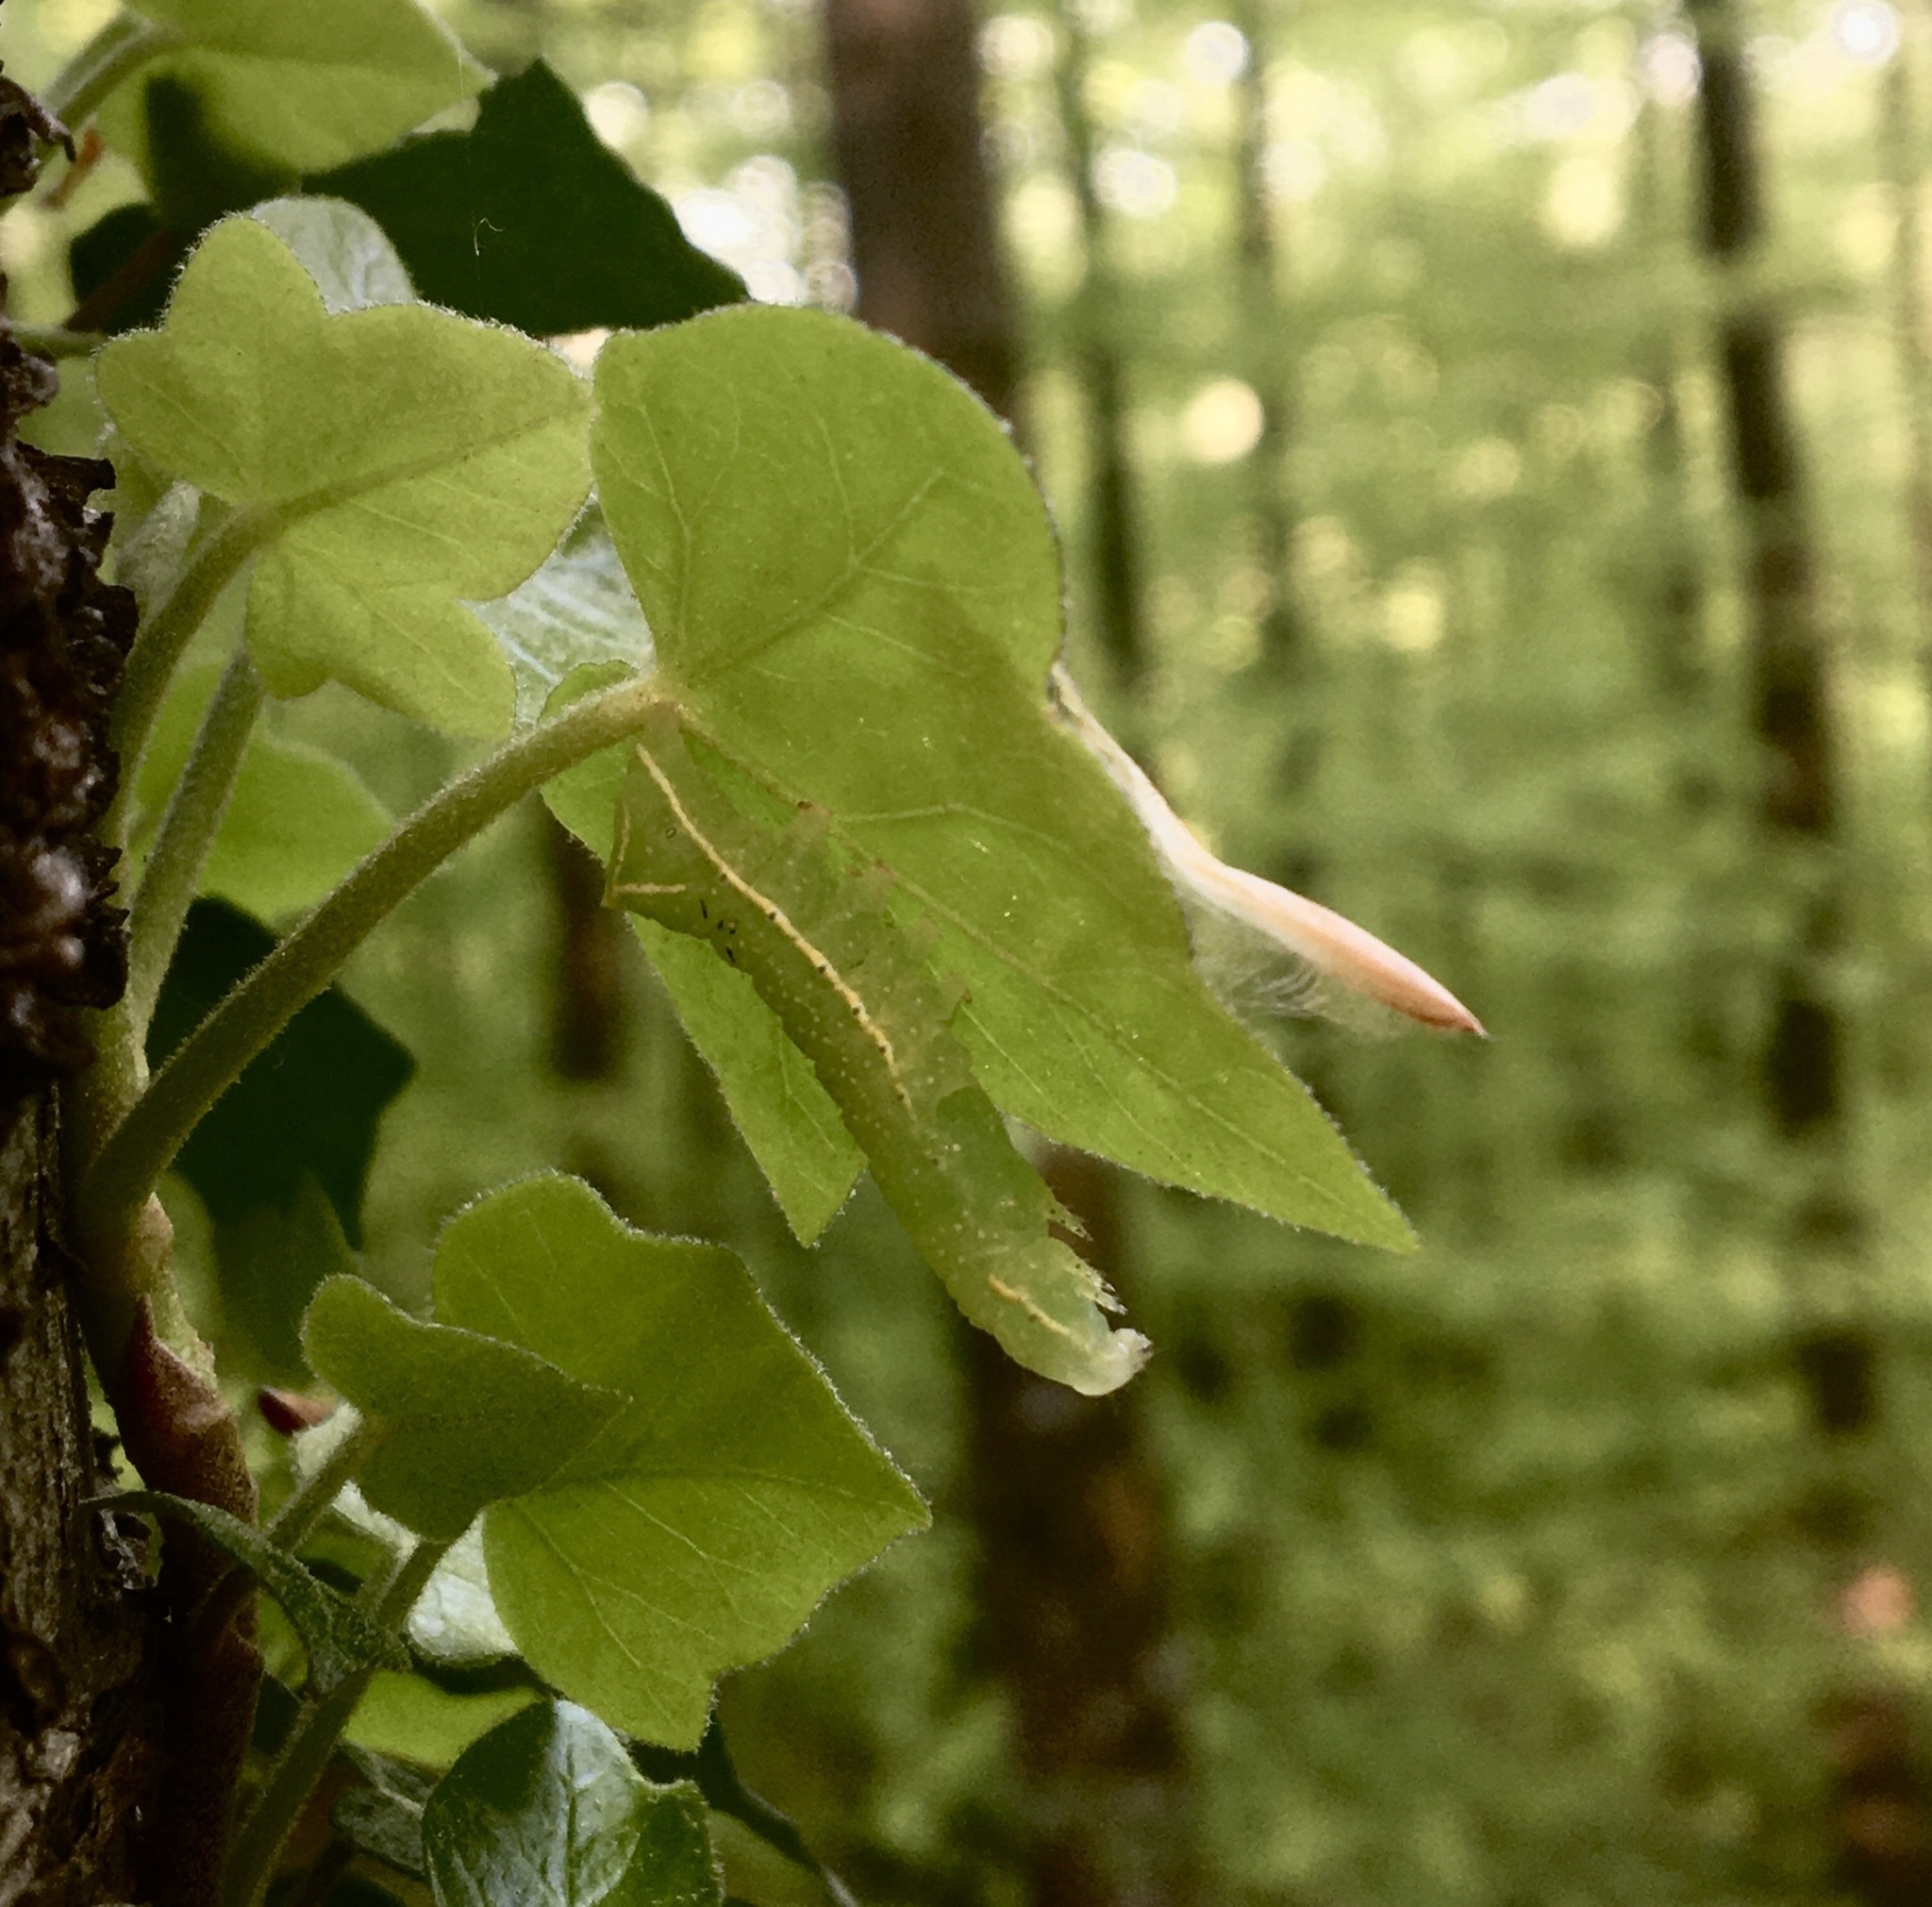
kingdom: Animalia
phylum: Arthropoda
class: Insecta
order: Lepidoptera
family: Noctuidae
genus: Amphipyra
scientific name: Amphipyra pyramidea
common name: Copper underwing
